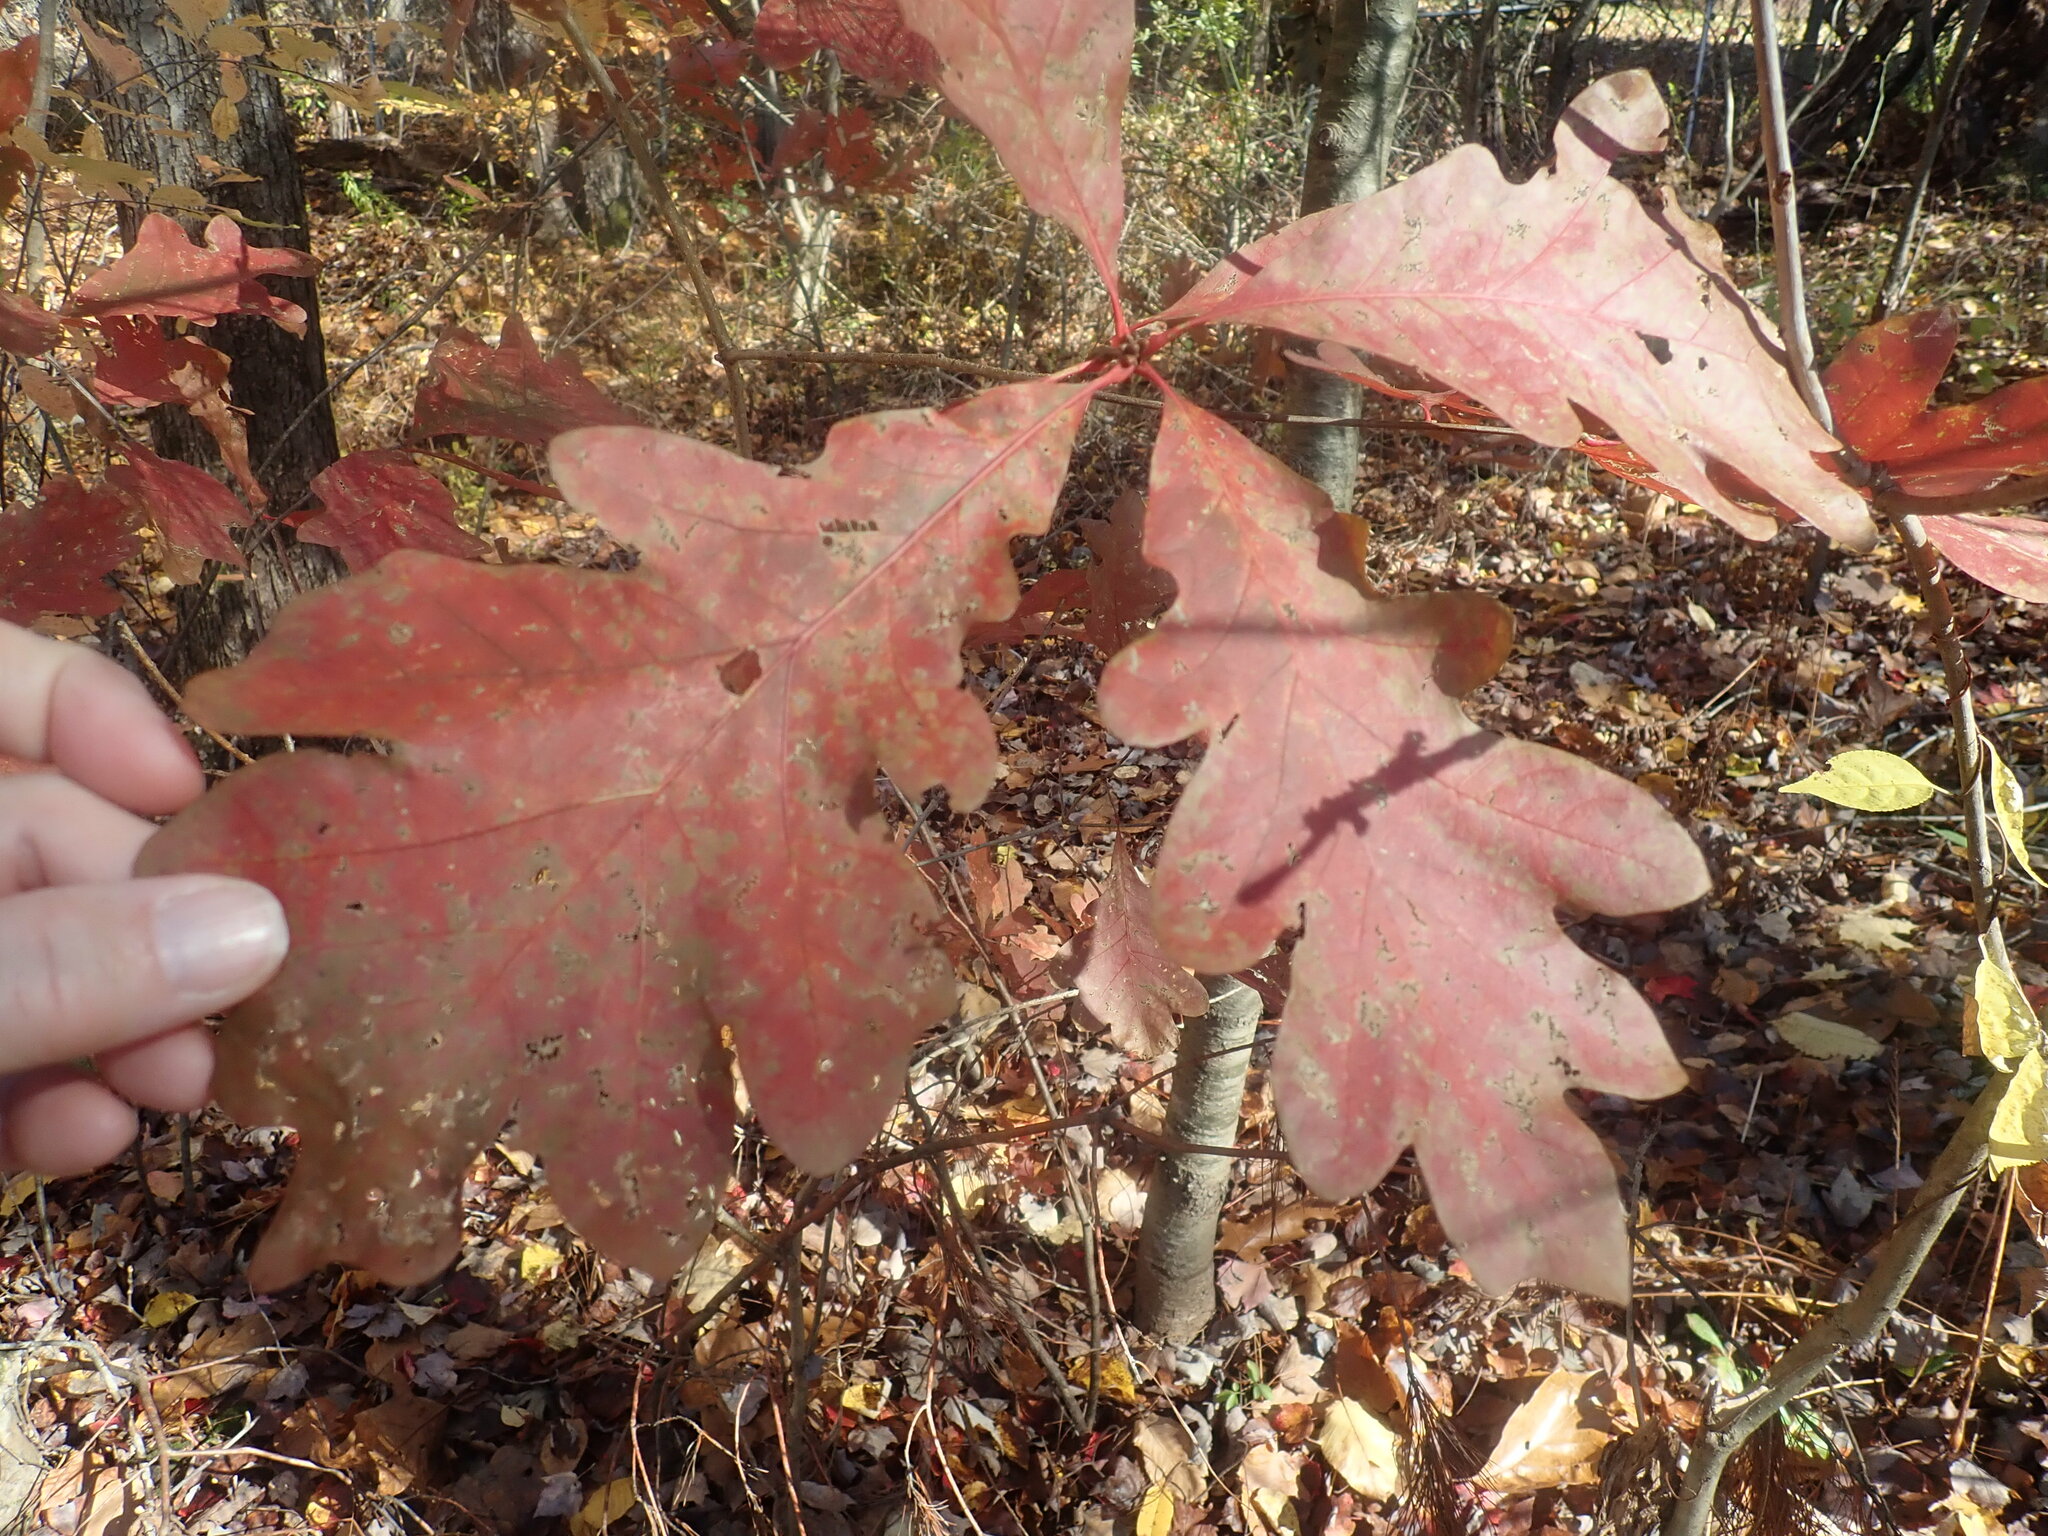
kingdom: Plantae
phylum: Tracheophyta
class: Magnoliopsida
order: Fagales
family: Fagaceae
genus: Quercus
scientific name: Quercus alba
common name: White oak
